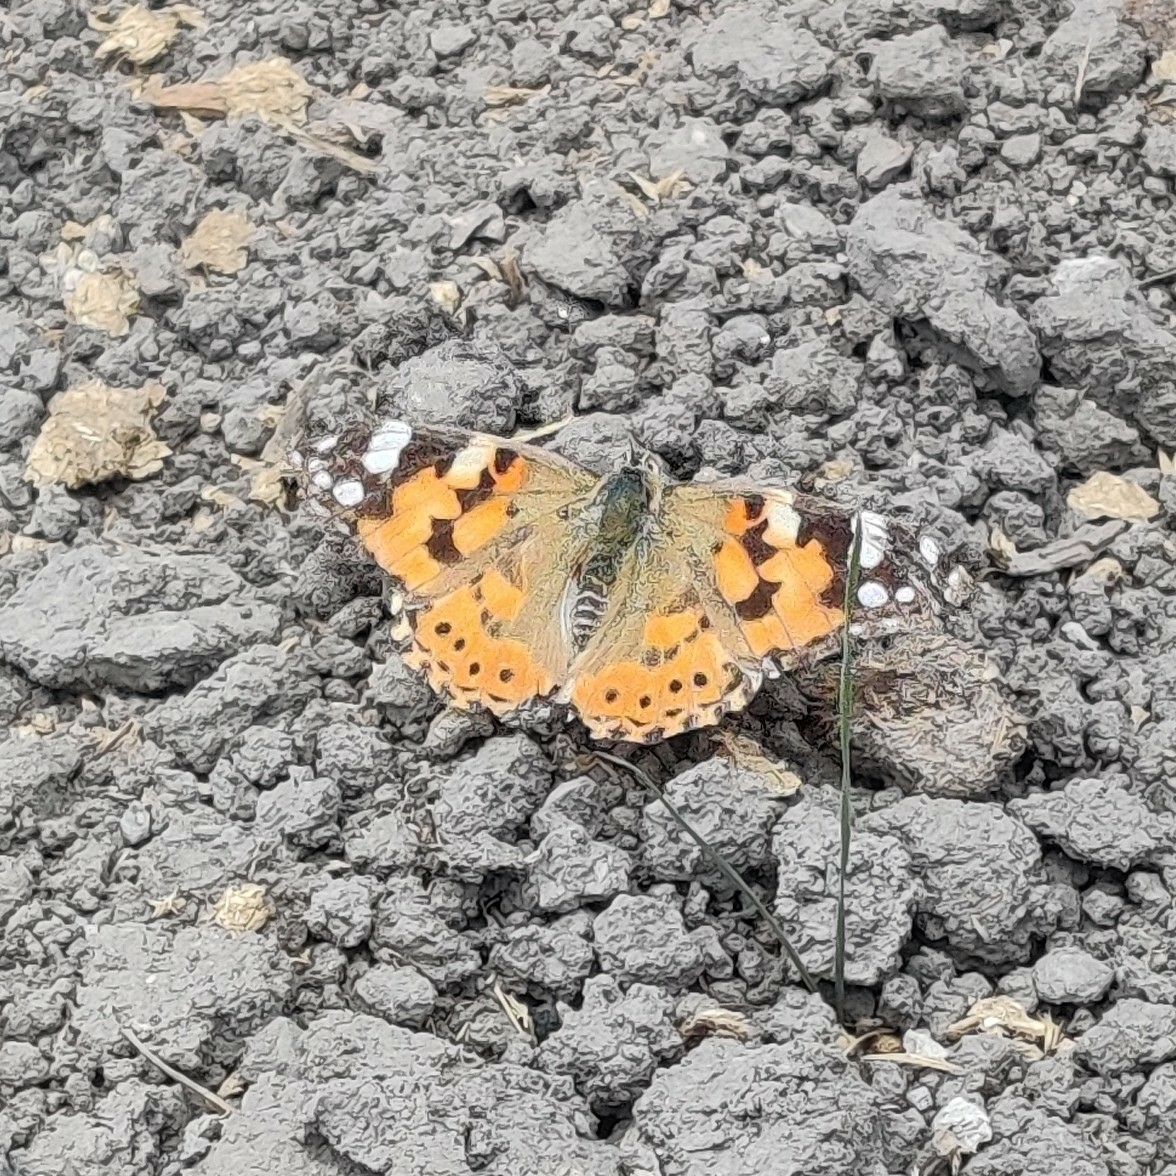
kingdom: Animalia
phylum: Arthropoda
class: Insecta
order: Lepidoptera
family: Nymphalidae
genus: Vanessa
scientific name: Vanessa cardui
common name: Painted lady
